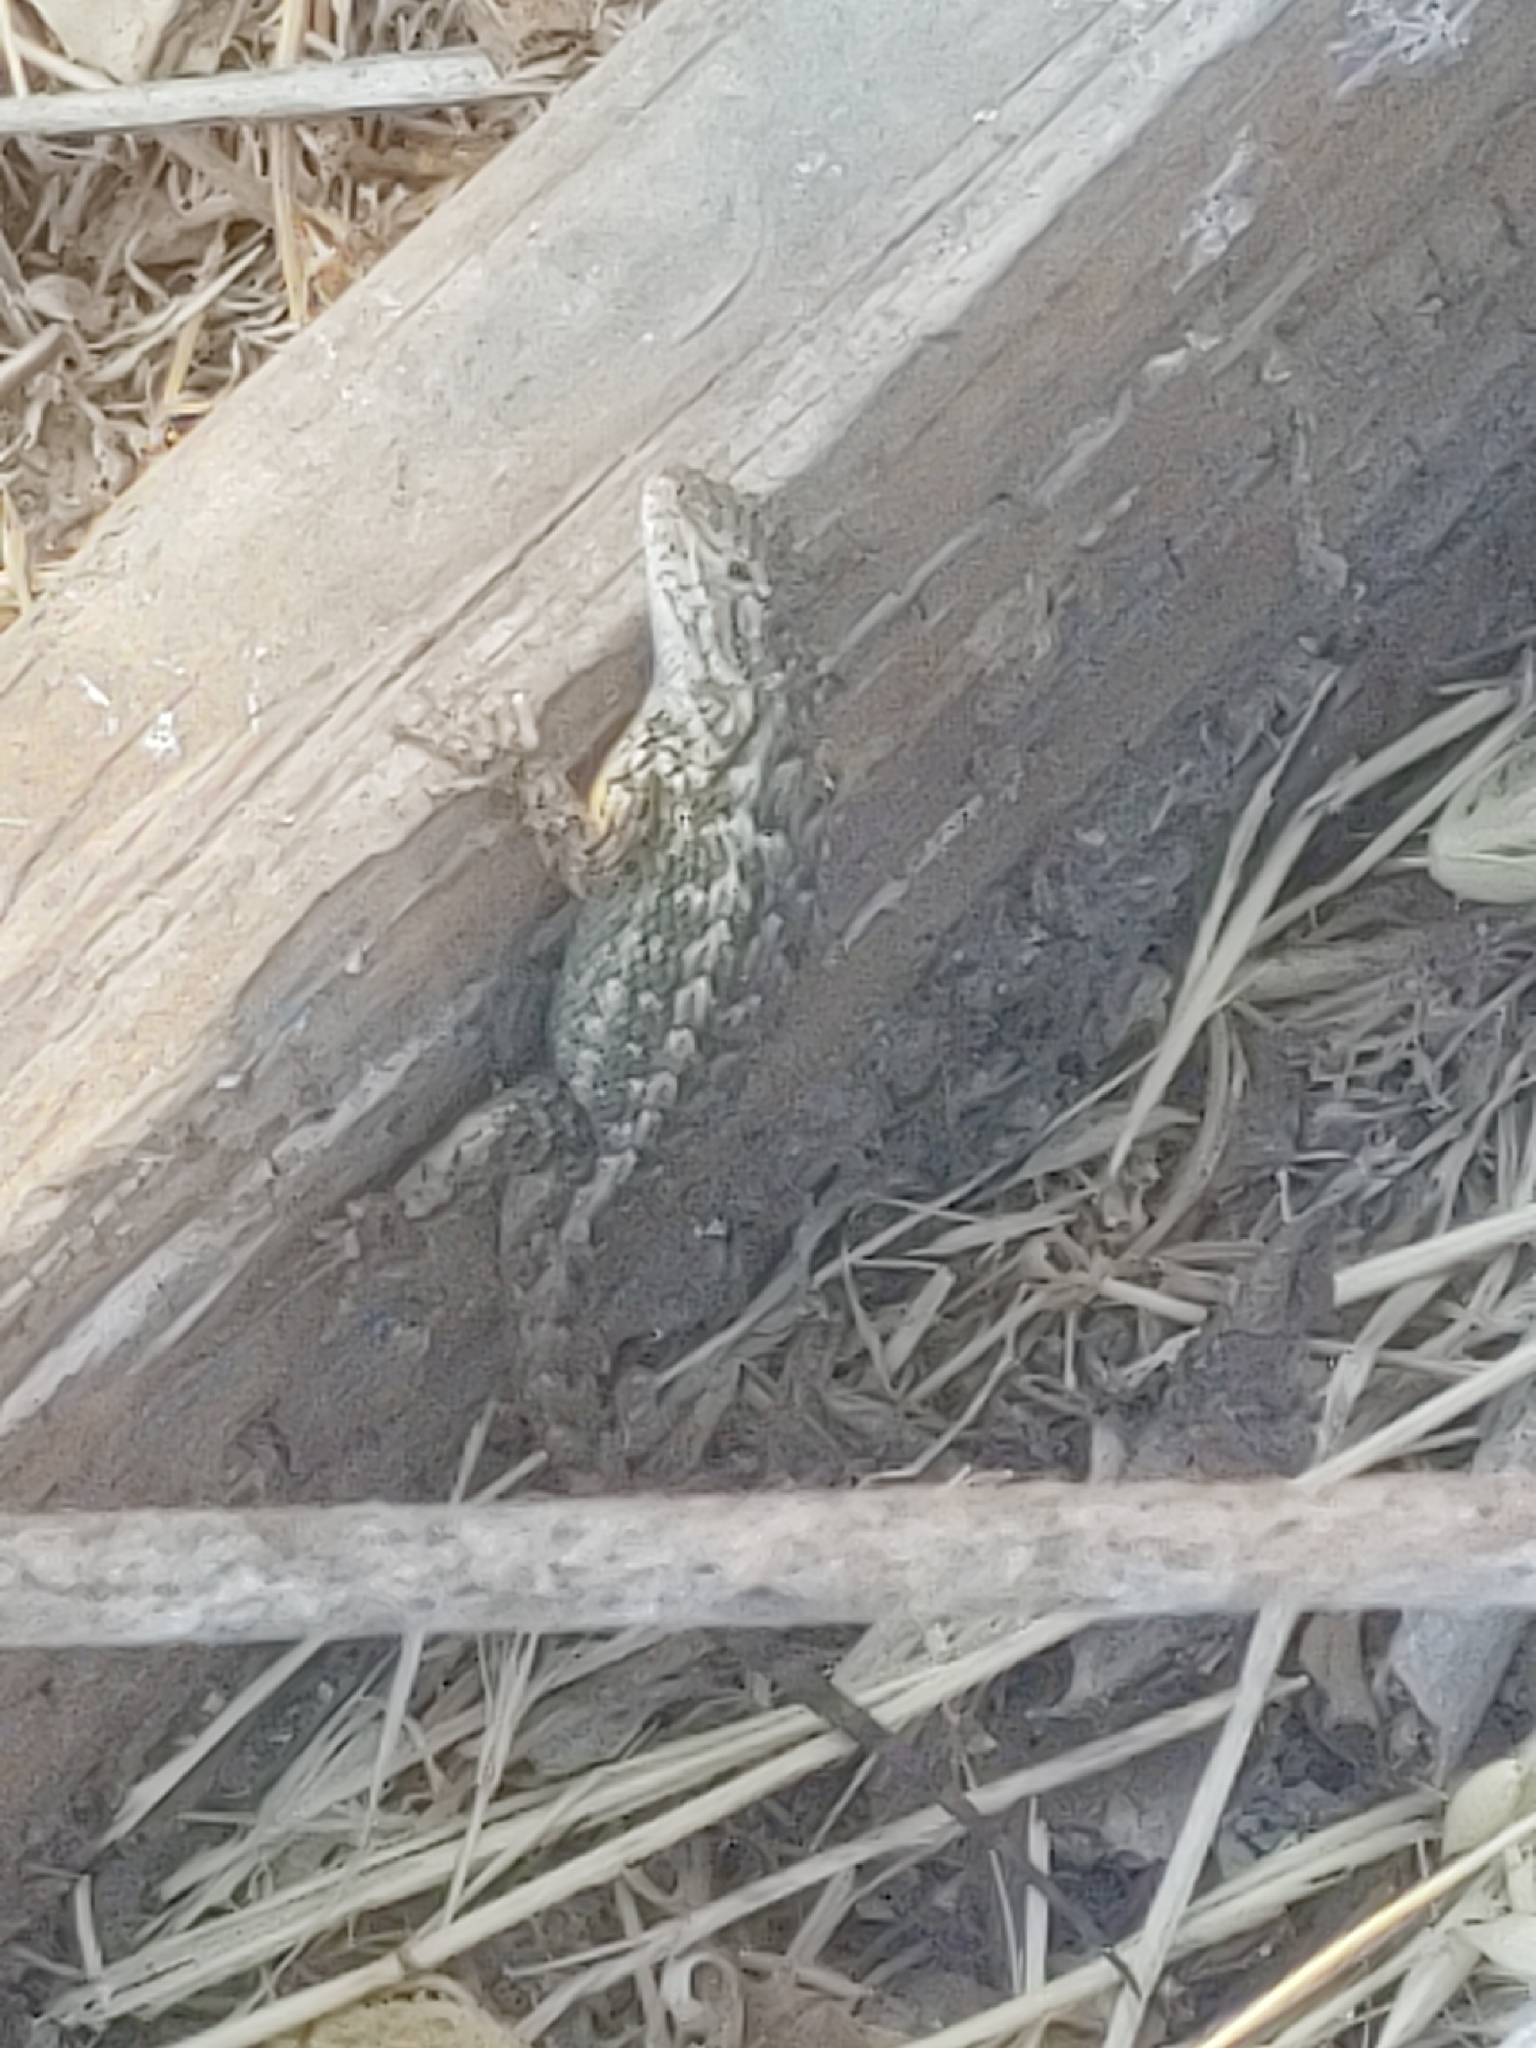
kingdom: Animalia
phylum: Chordata
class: Squamata
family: Phrynosomatidae
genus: Sceloporus
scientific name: Sceloporus occidentalis
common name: Western fence lizard
